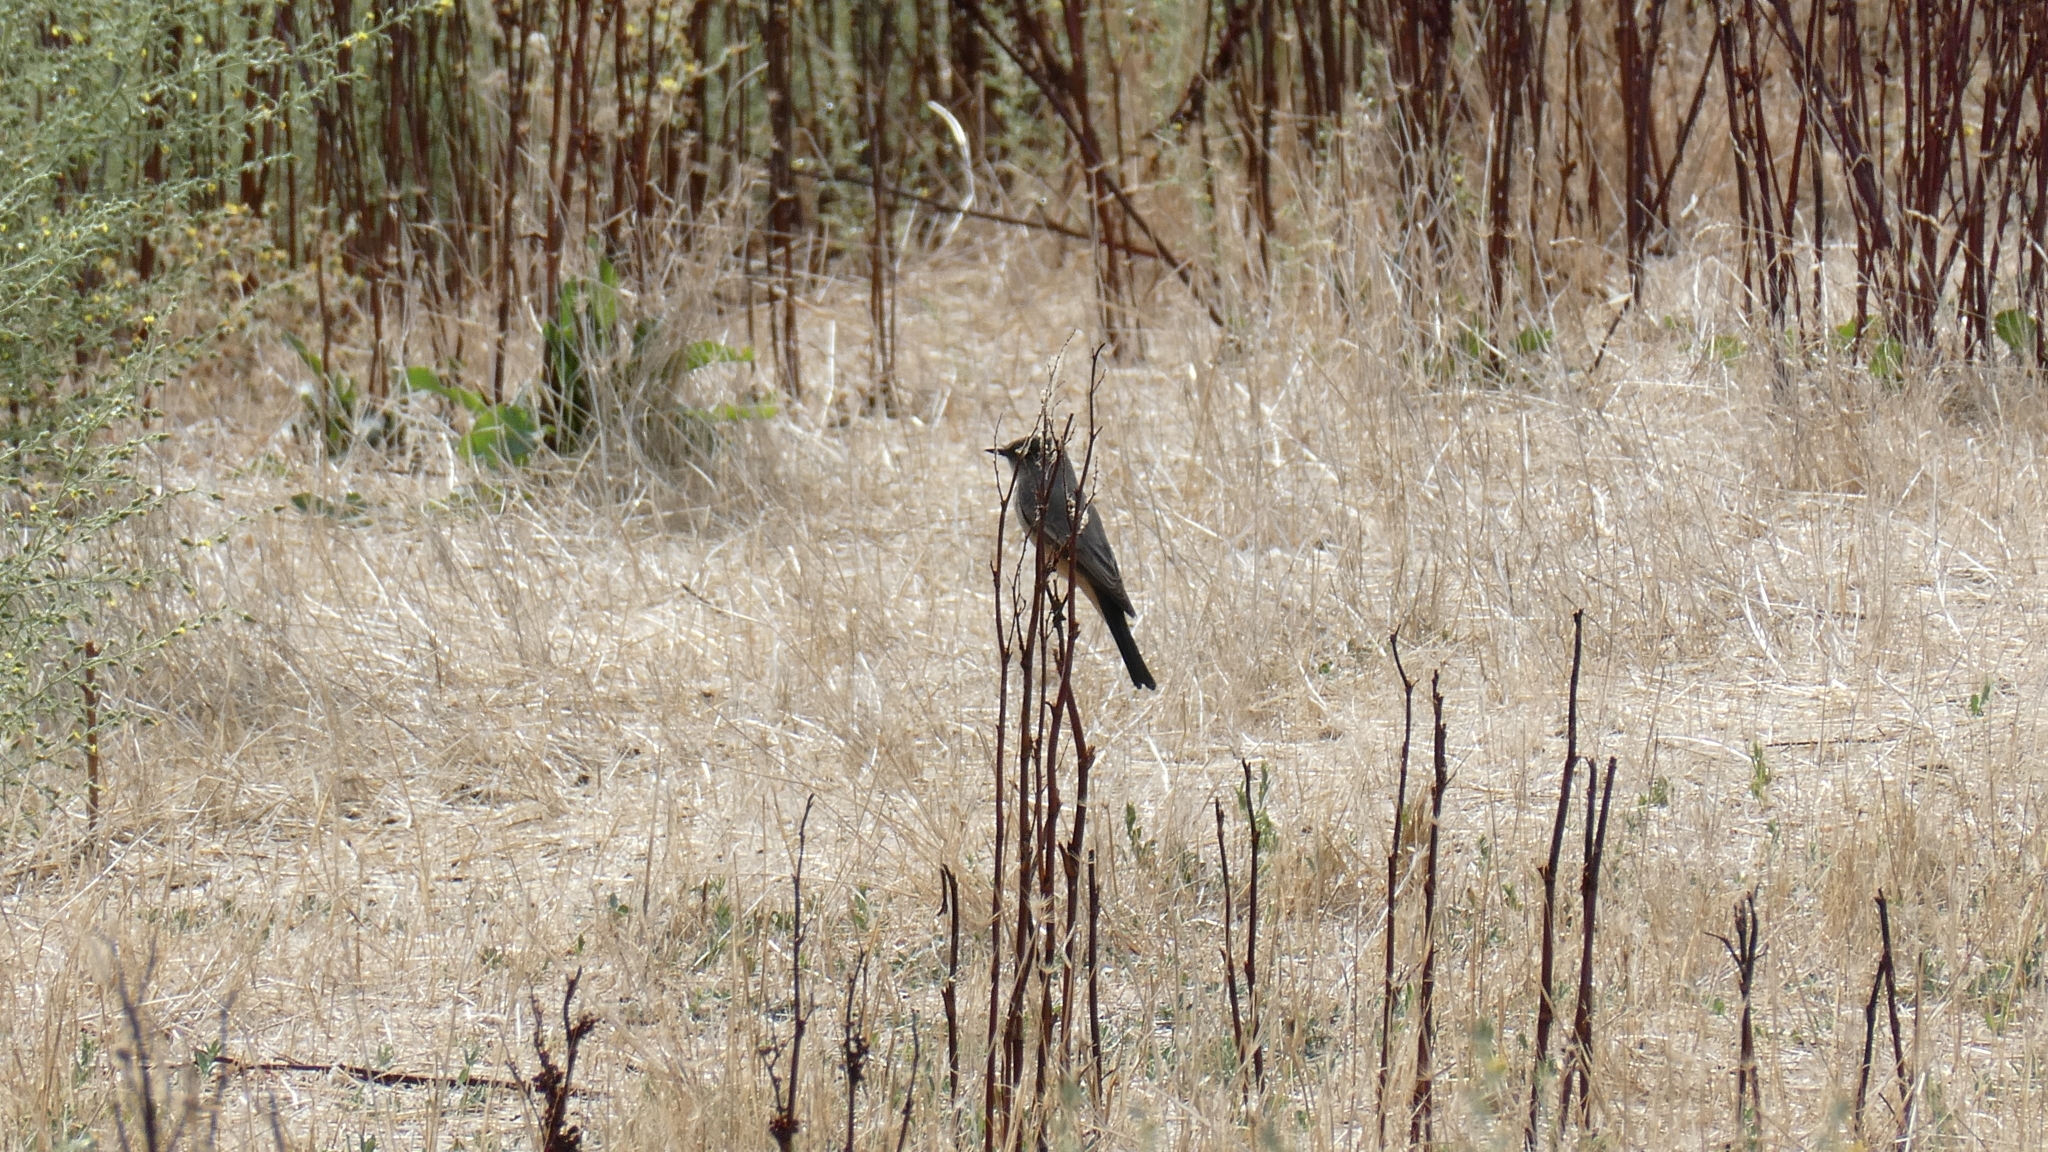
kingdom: Animalia
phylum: Chordata
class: Aves
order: Passeriformes
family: Tyrannidae
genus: Sayornis
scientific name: Sayornis saya
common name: Say's phoebe
